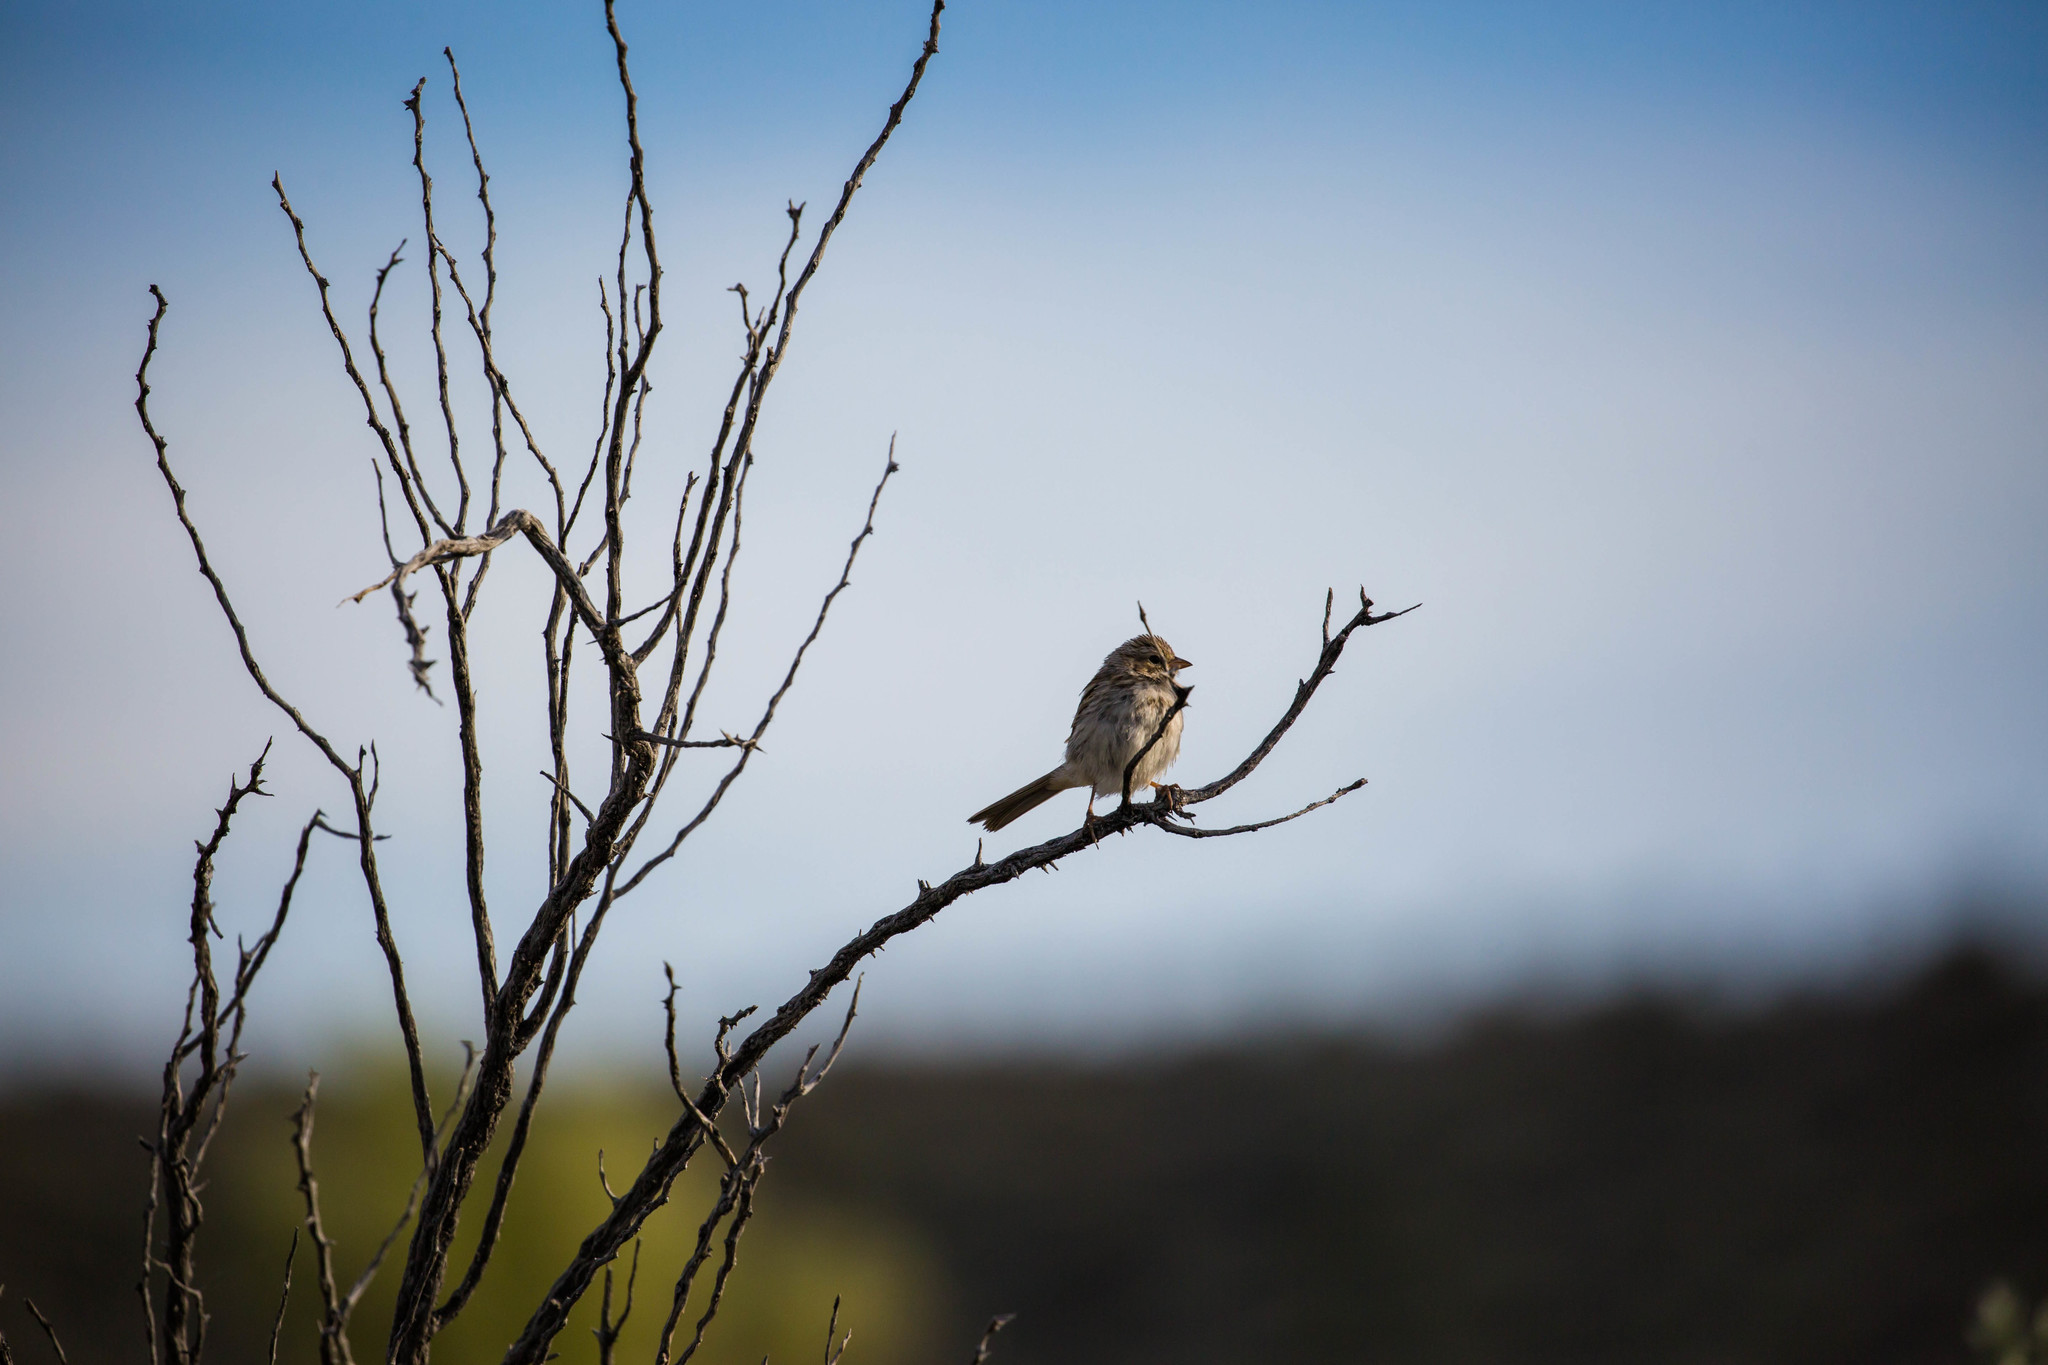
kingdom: Animalia
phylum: Chordata
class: Aves
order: Passeriformes
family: Passerellidae
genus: Passerculus
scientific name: Passerculus sandwichensis
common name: Savannah sparrow
